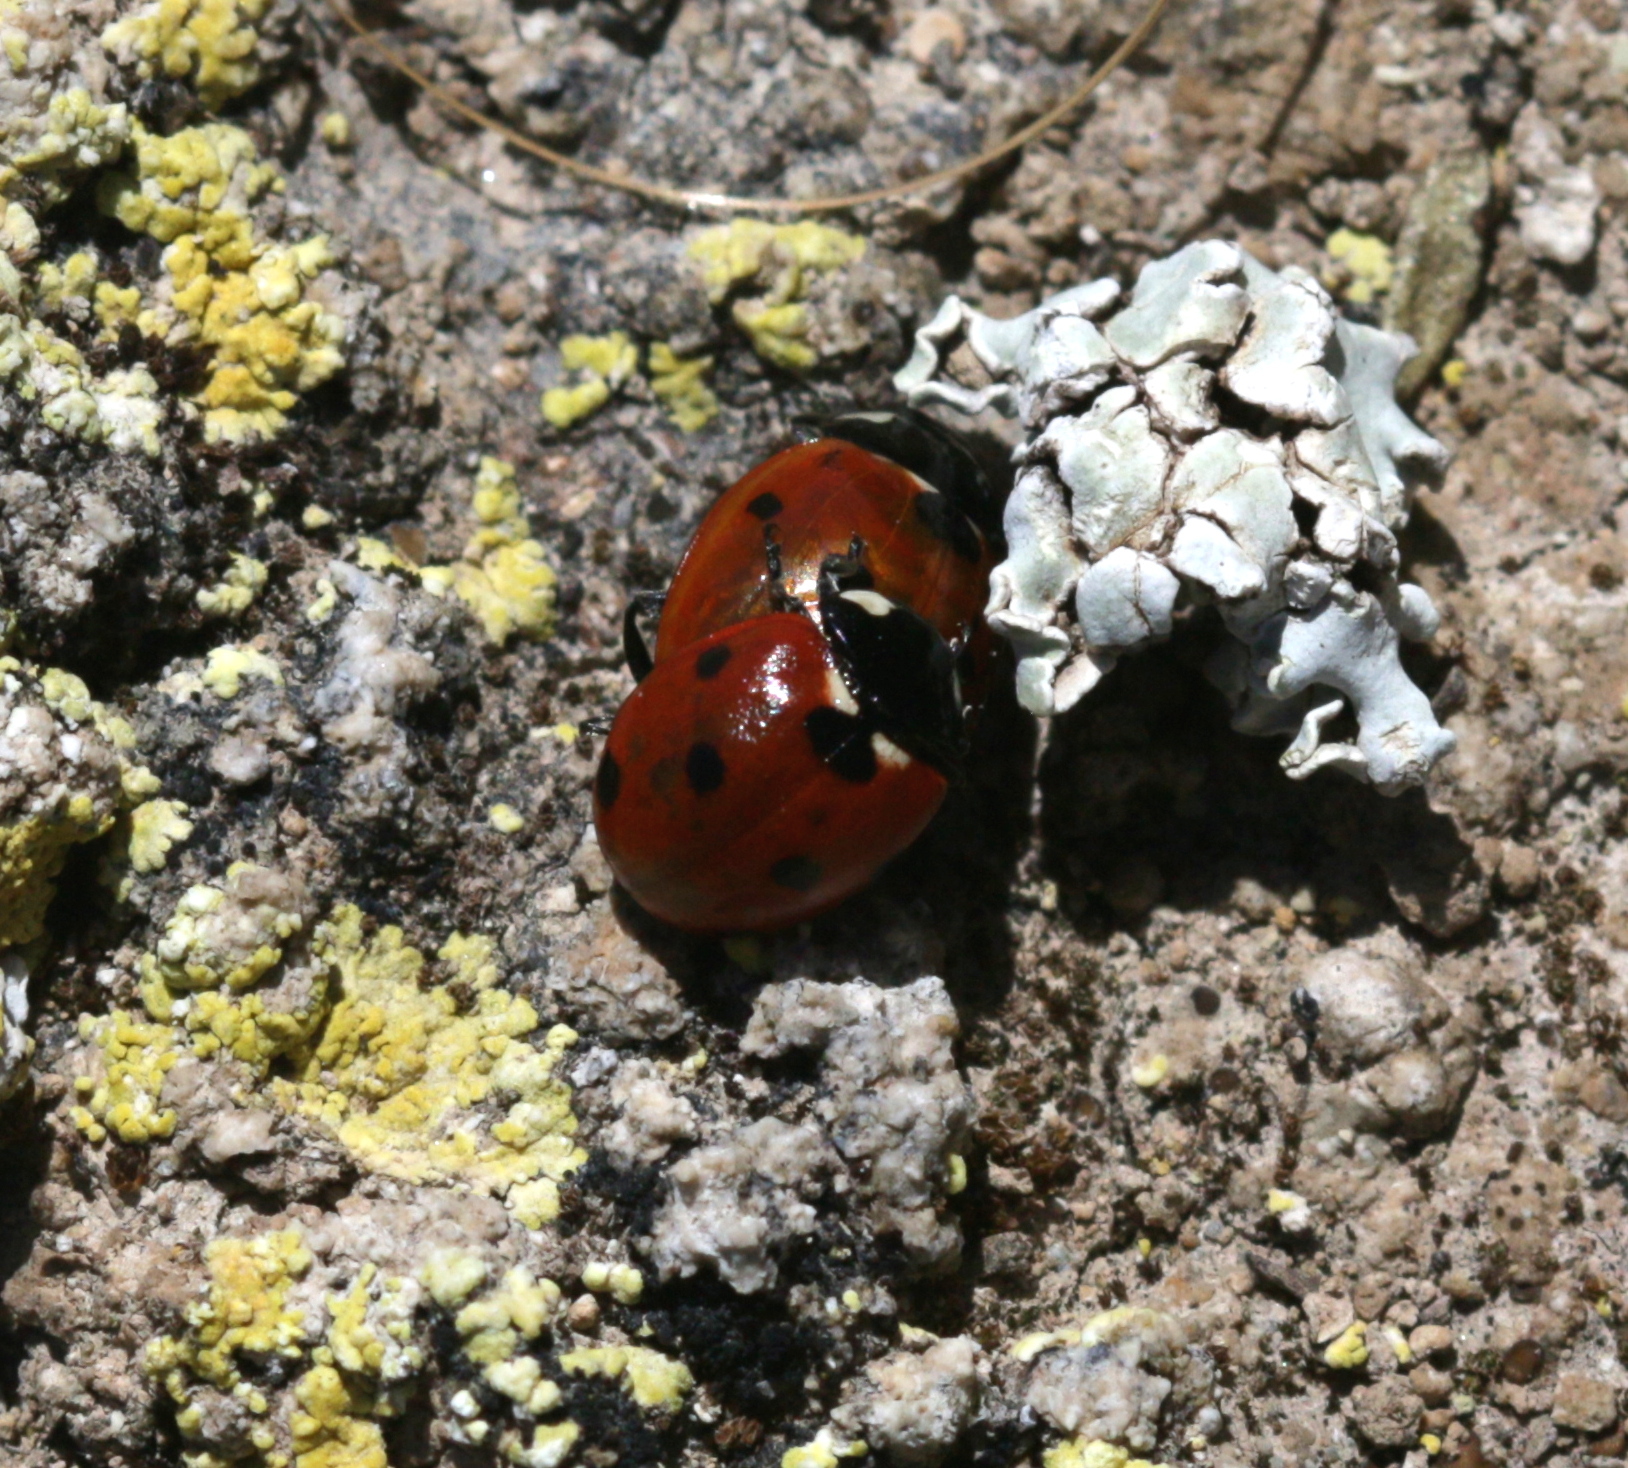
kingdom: Animalia
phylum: Arthropoda
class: Insecta
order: Coleoptera
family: Coccinellidae
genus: Coccinella
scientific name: Coccinella septempunctata
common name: Sevenspotted lady beetle
